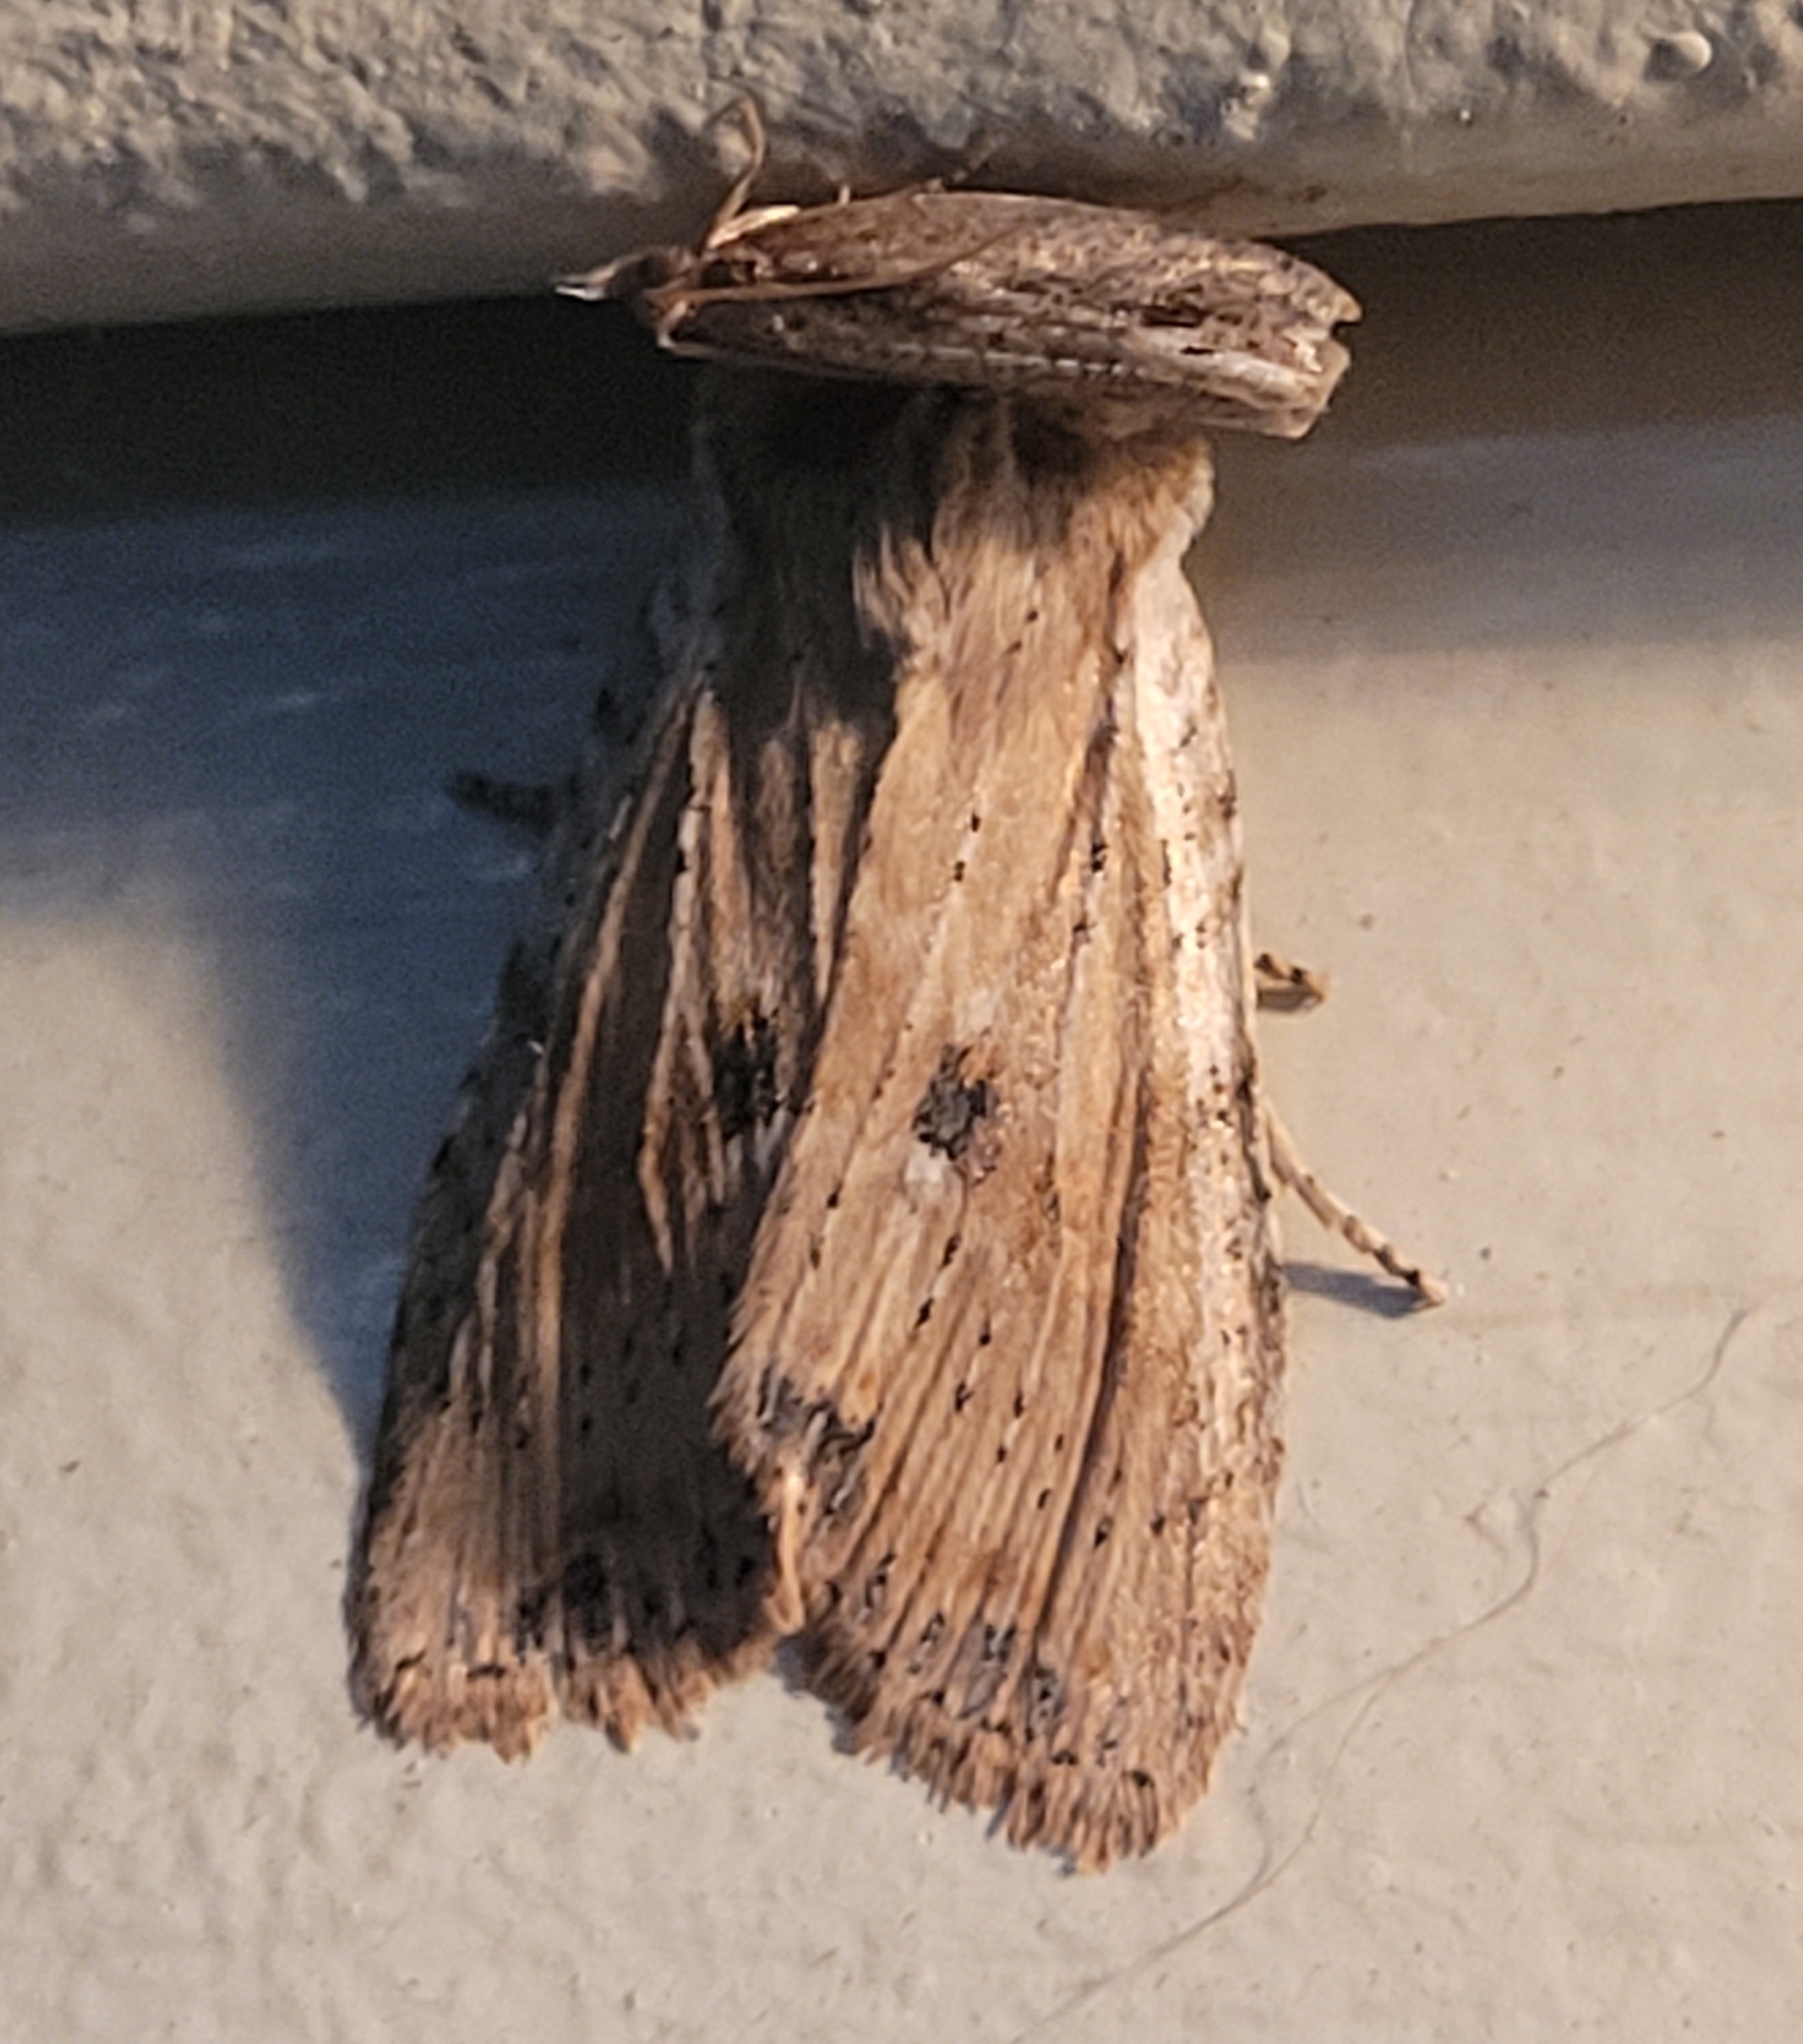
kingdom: Animalia
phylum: Arthropoda
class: Insecta
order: Lepidoptera
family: Noctuidae
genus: Lithophane
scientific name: Lithophane innominata
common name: Nameless pinion moth
